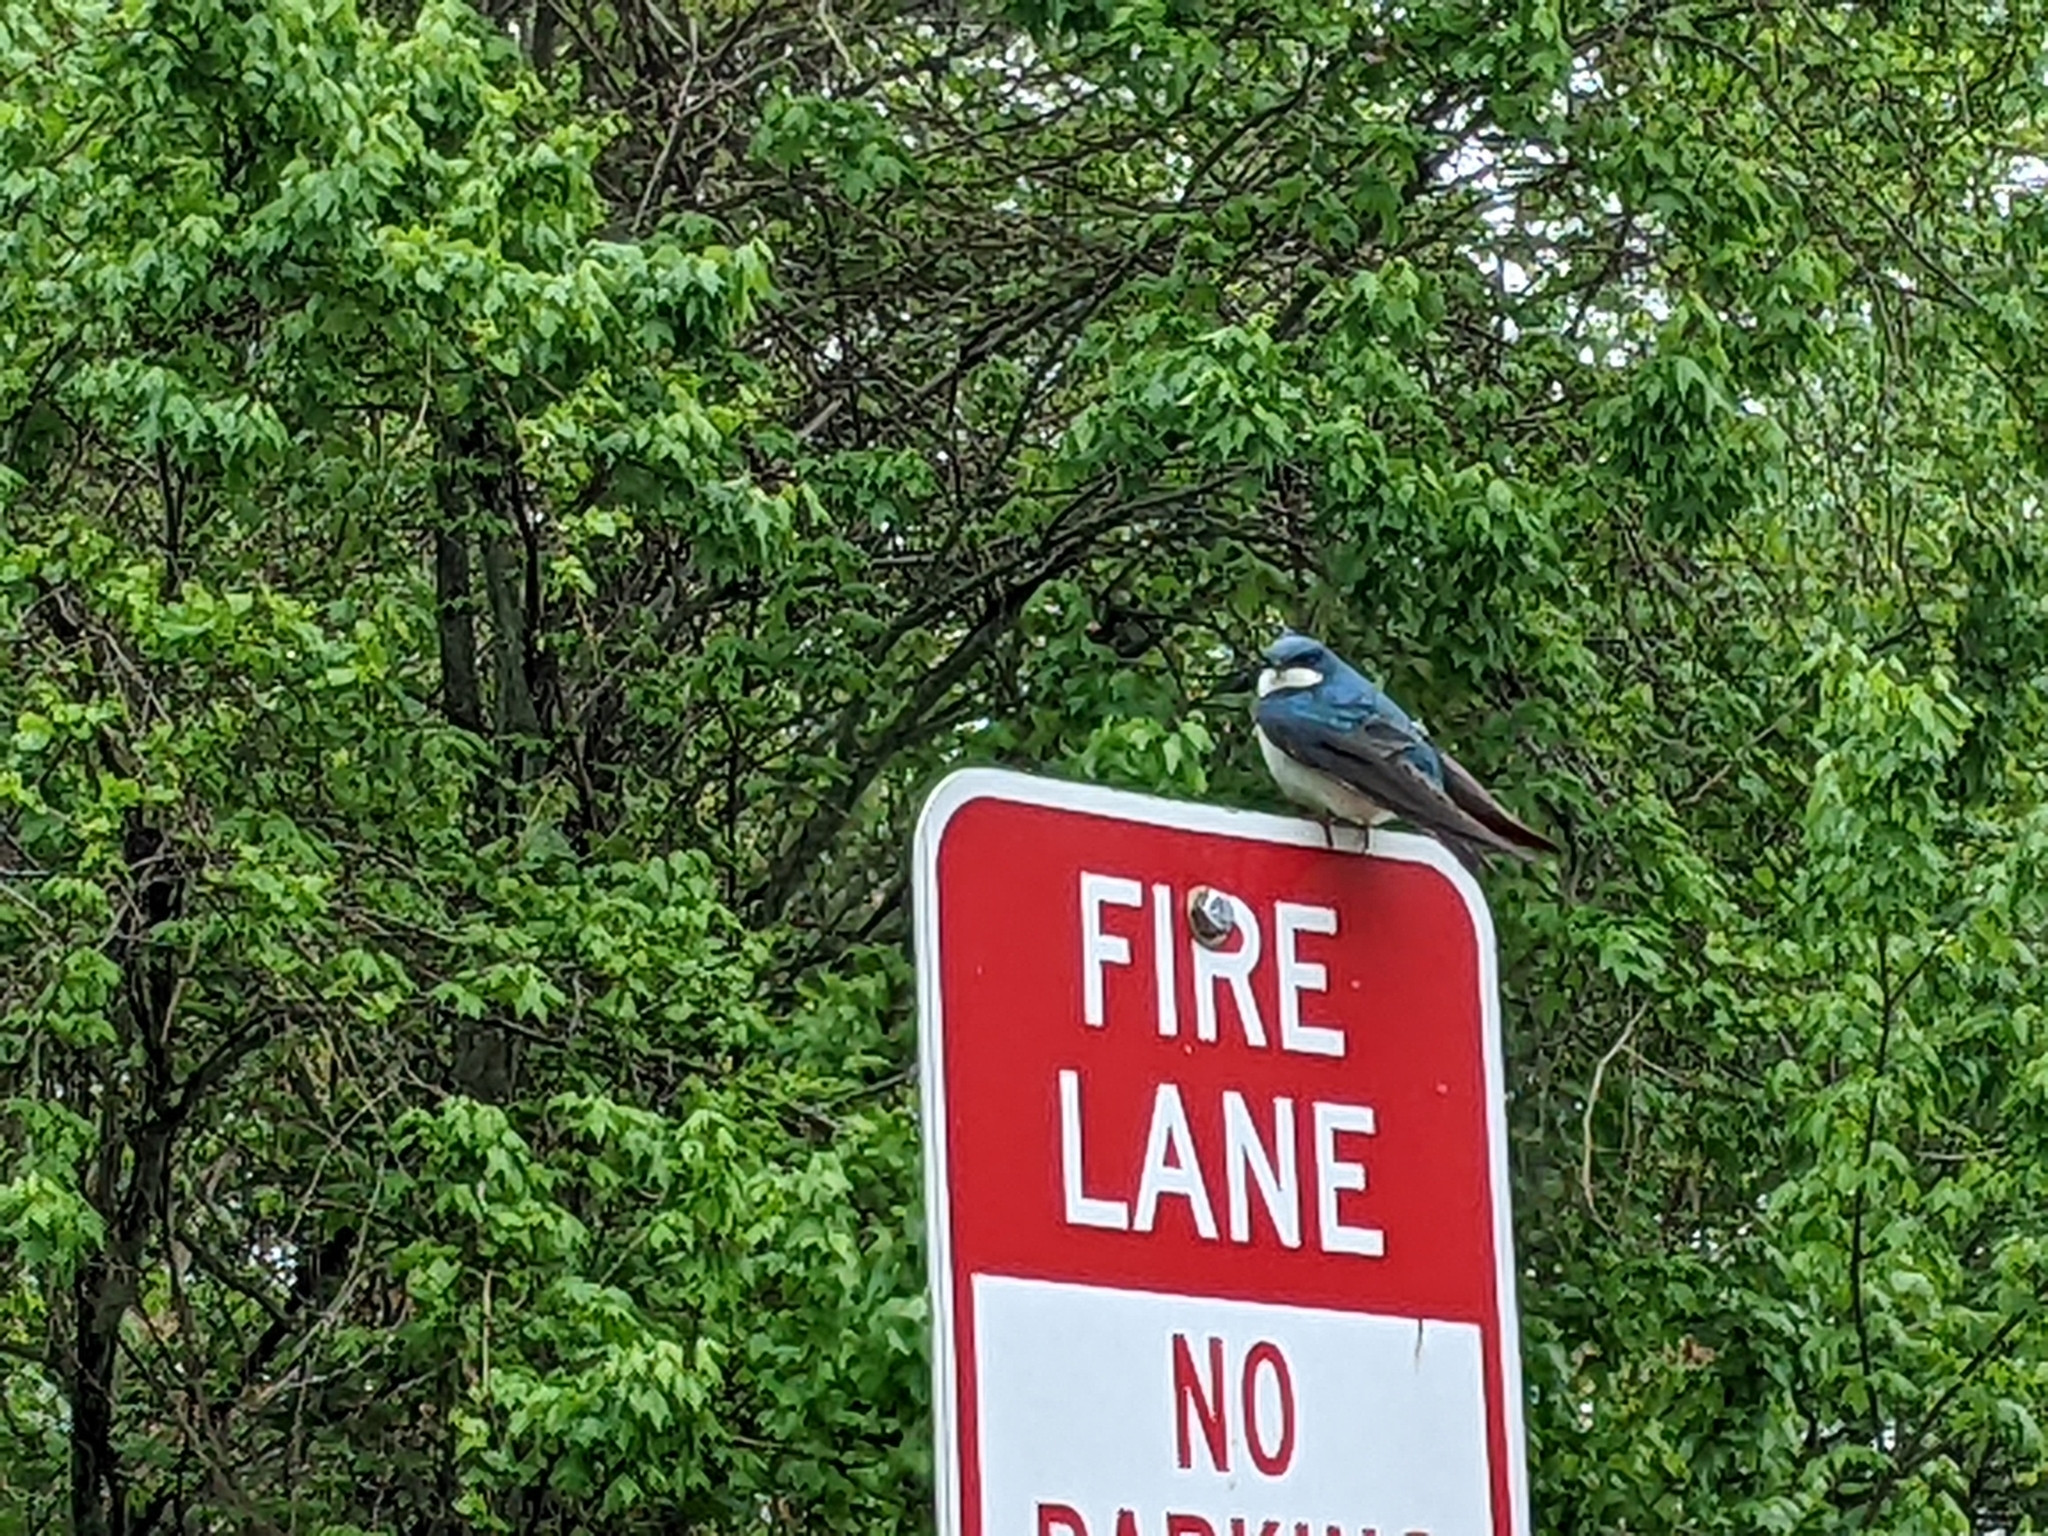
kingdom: Animalia
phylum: Chordata
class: Aves
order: Passeriformes
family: Hirundinidae
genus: Tachycineta
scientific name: Tachycineta bicolor
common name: Tree swallow
